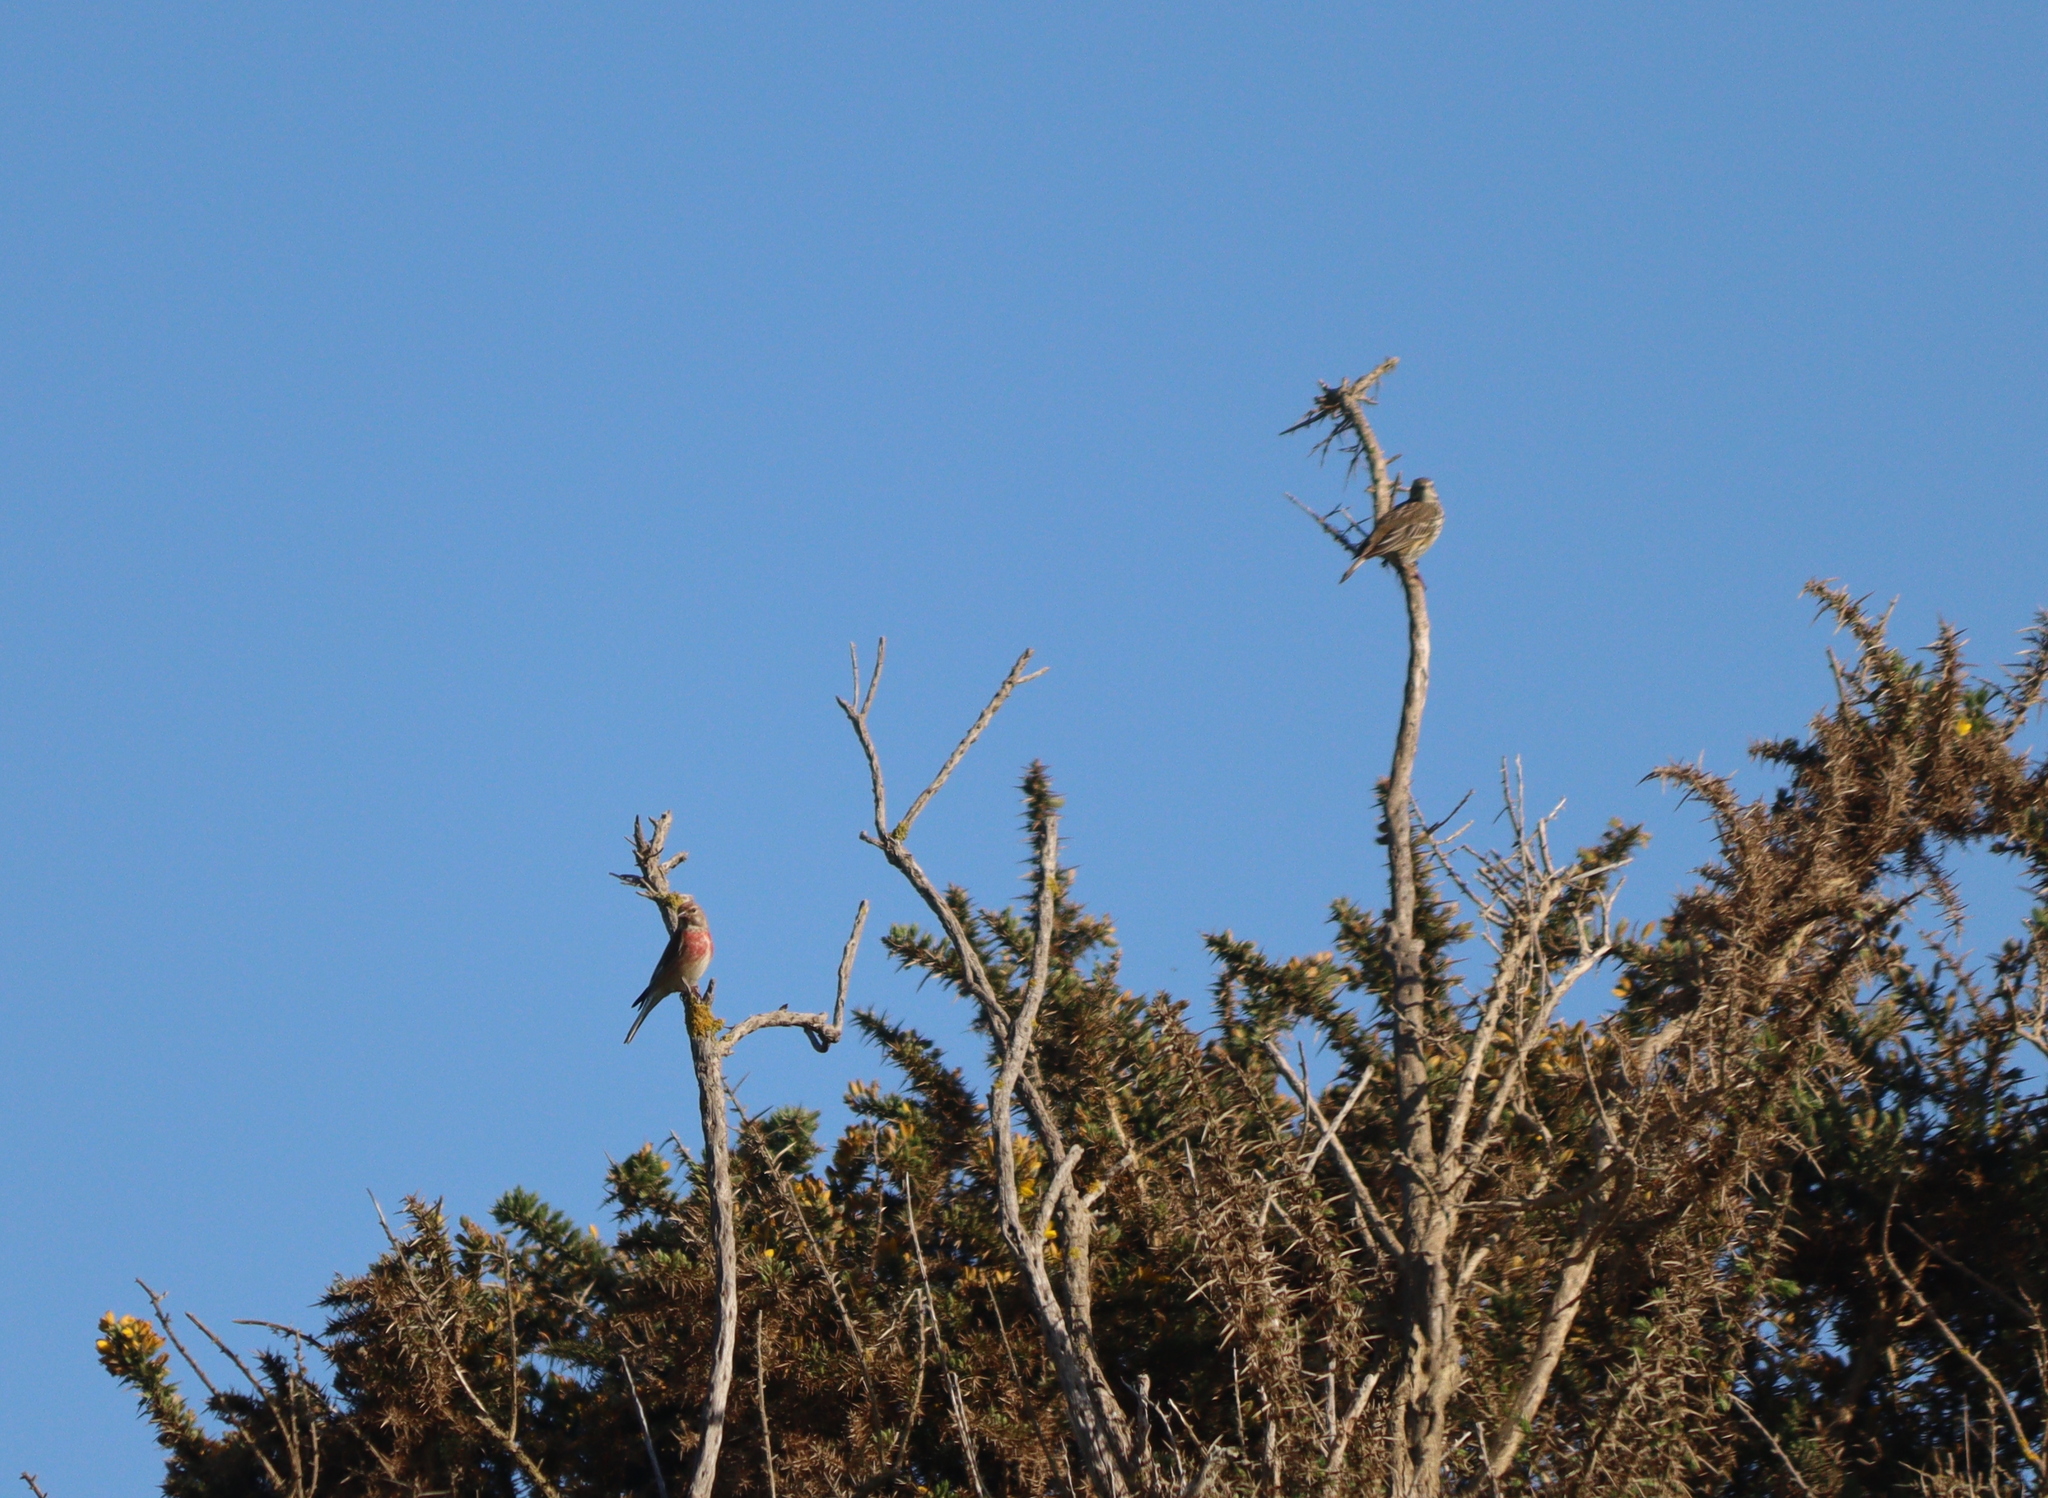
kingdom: Animalia
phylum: Chordata
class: Aves
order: Passeriformes
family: Fringillidae
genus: Linaria
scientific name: Linaria cannabina
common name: Common linnet
